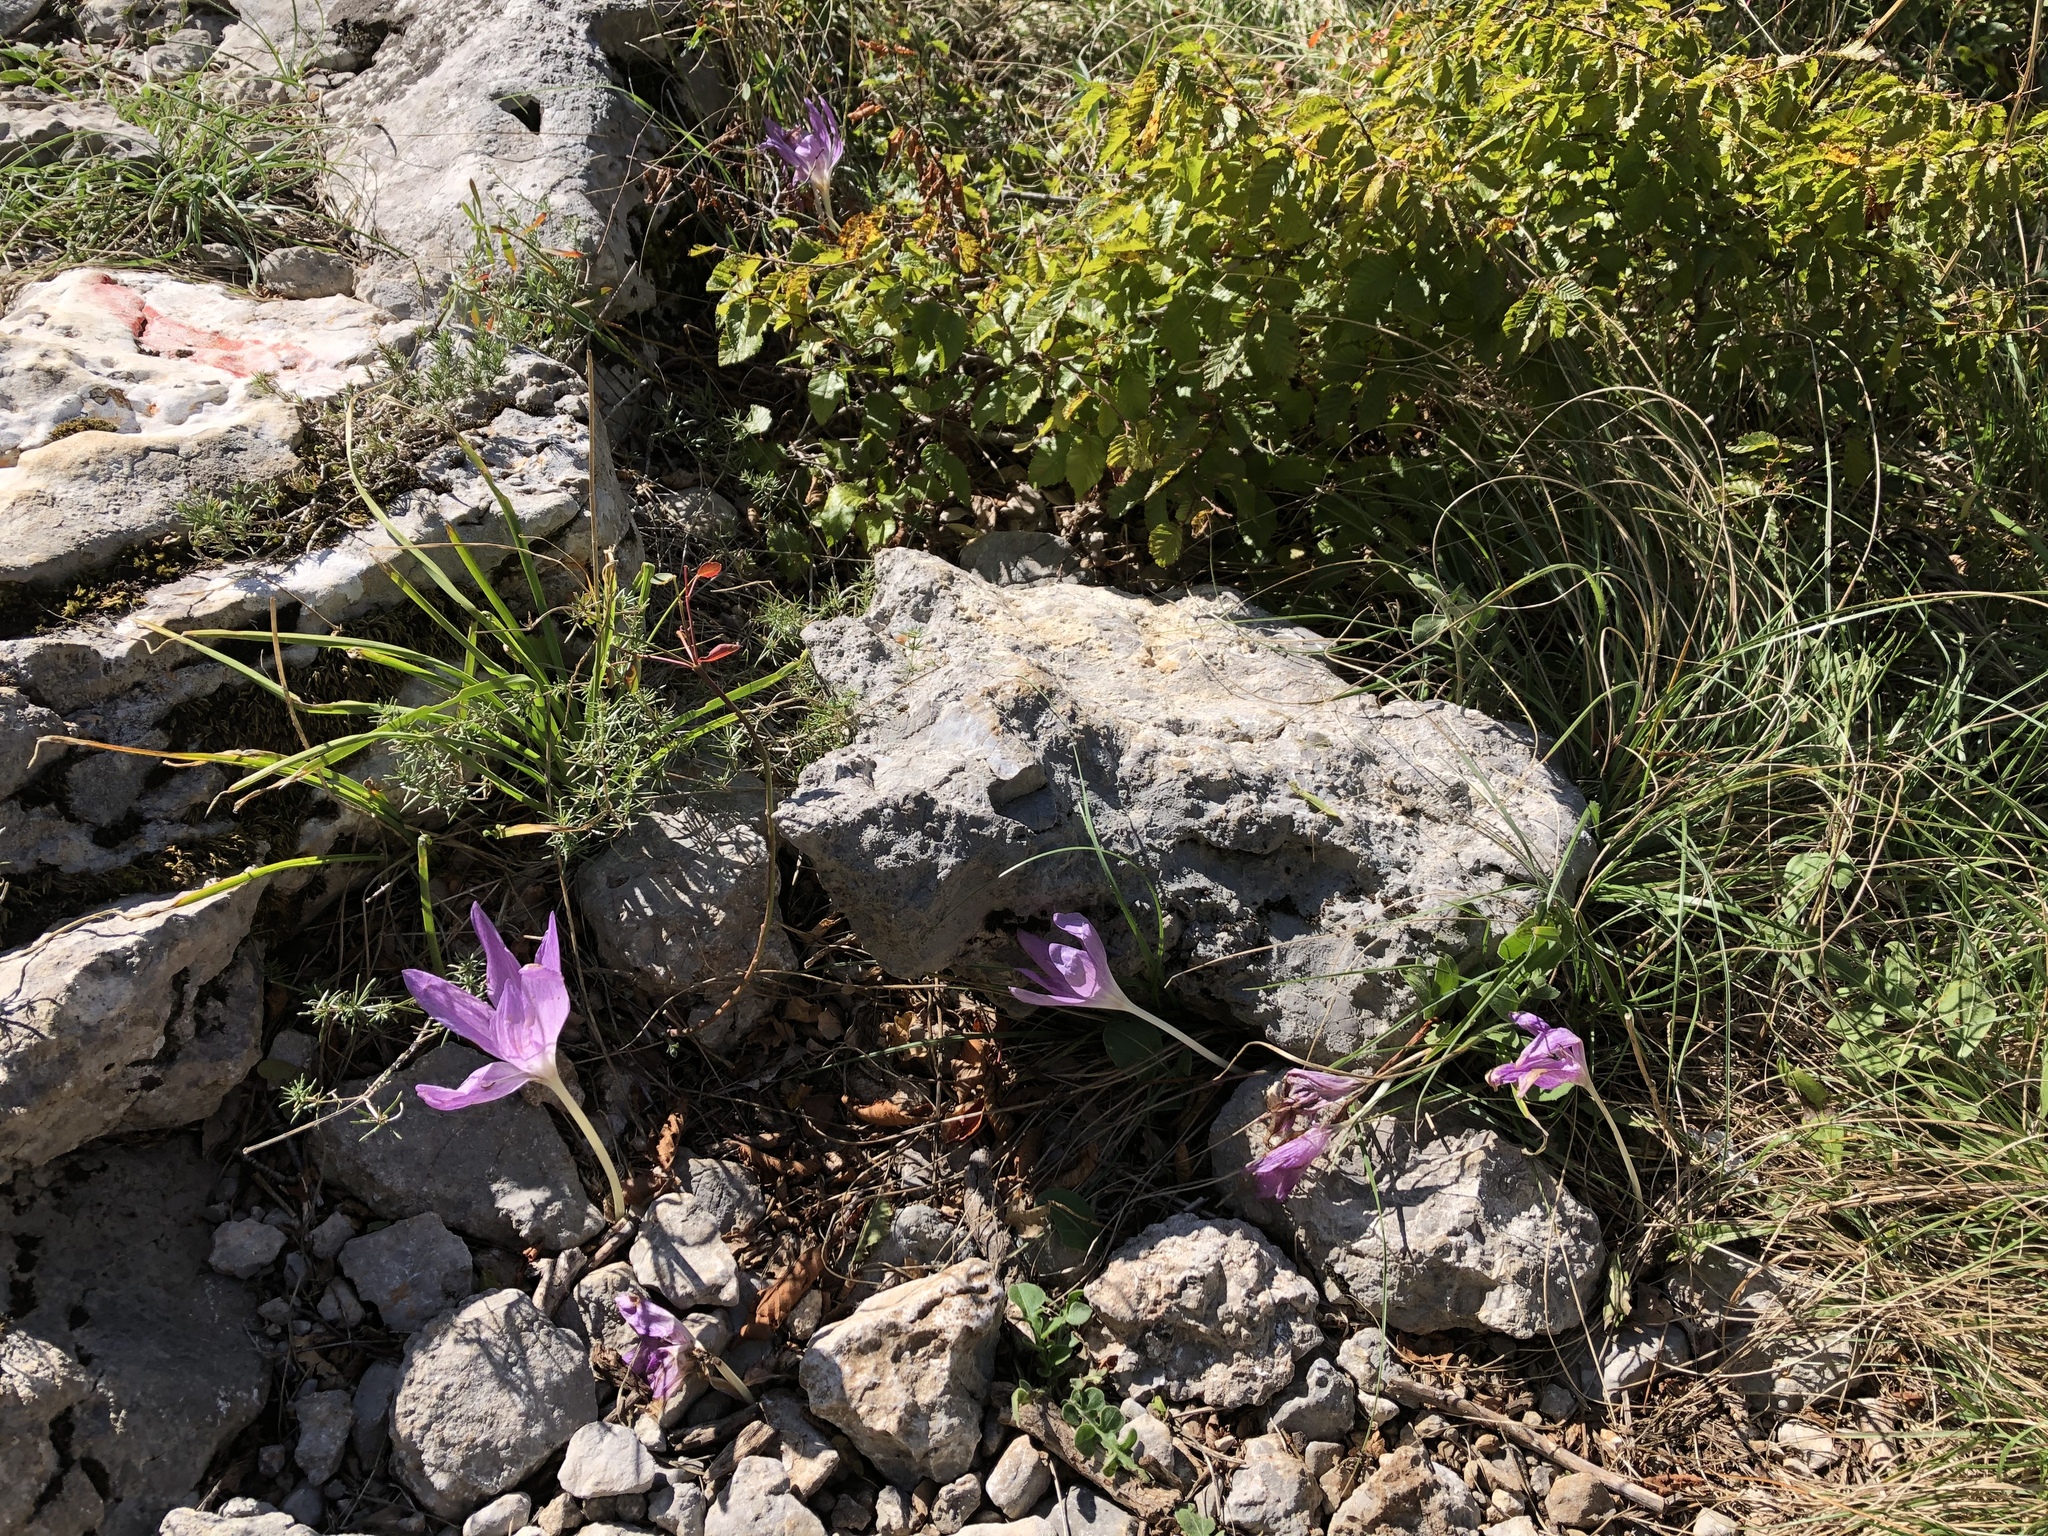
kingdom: Plantae
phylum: Tracheophyta
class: Liliopsida
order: Liliales
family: Colchicaceae
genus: Colchicum
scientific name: Colchicum haynaldii
